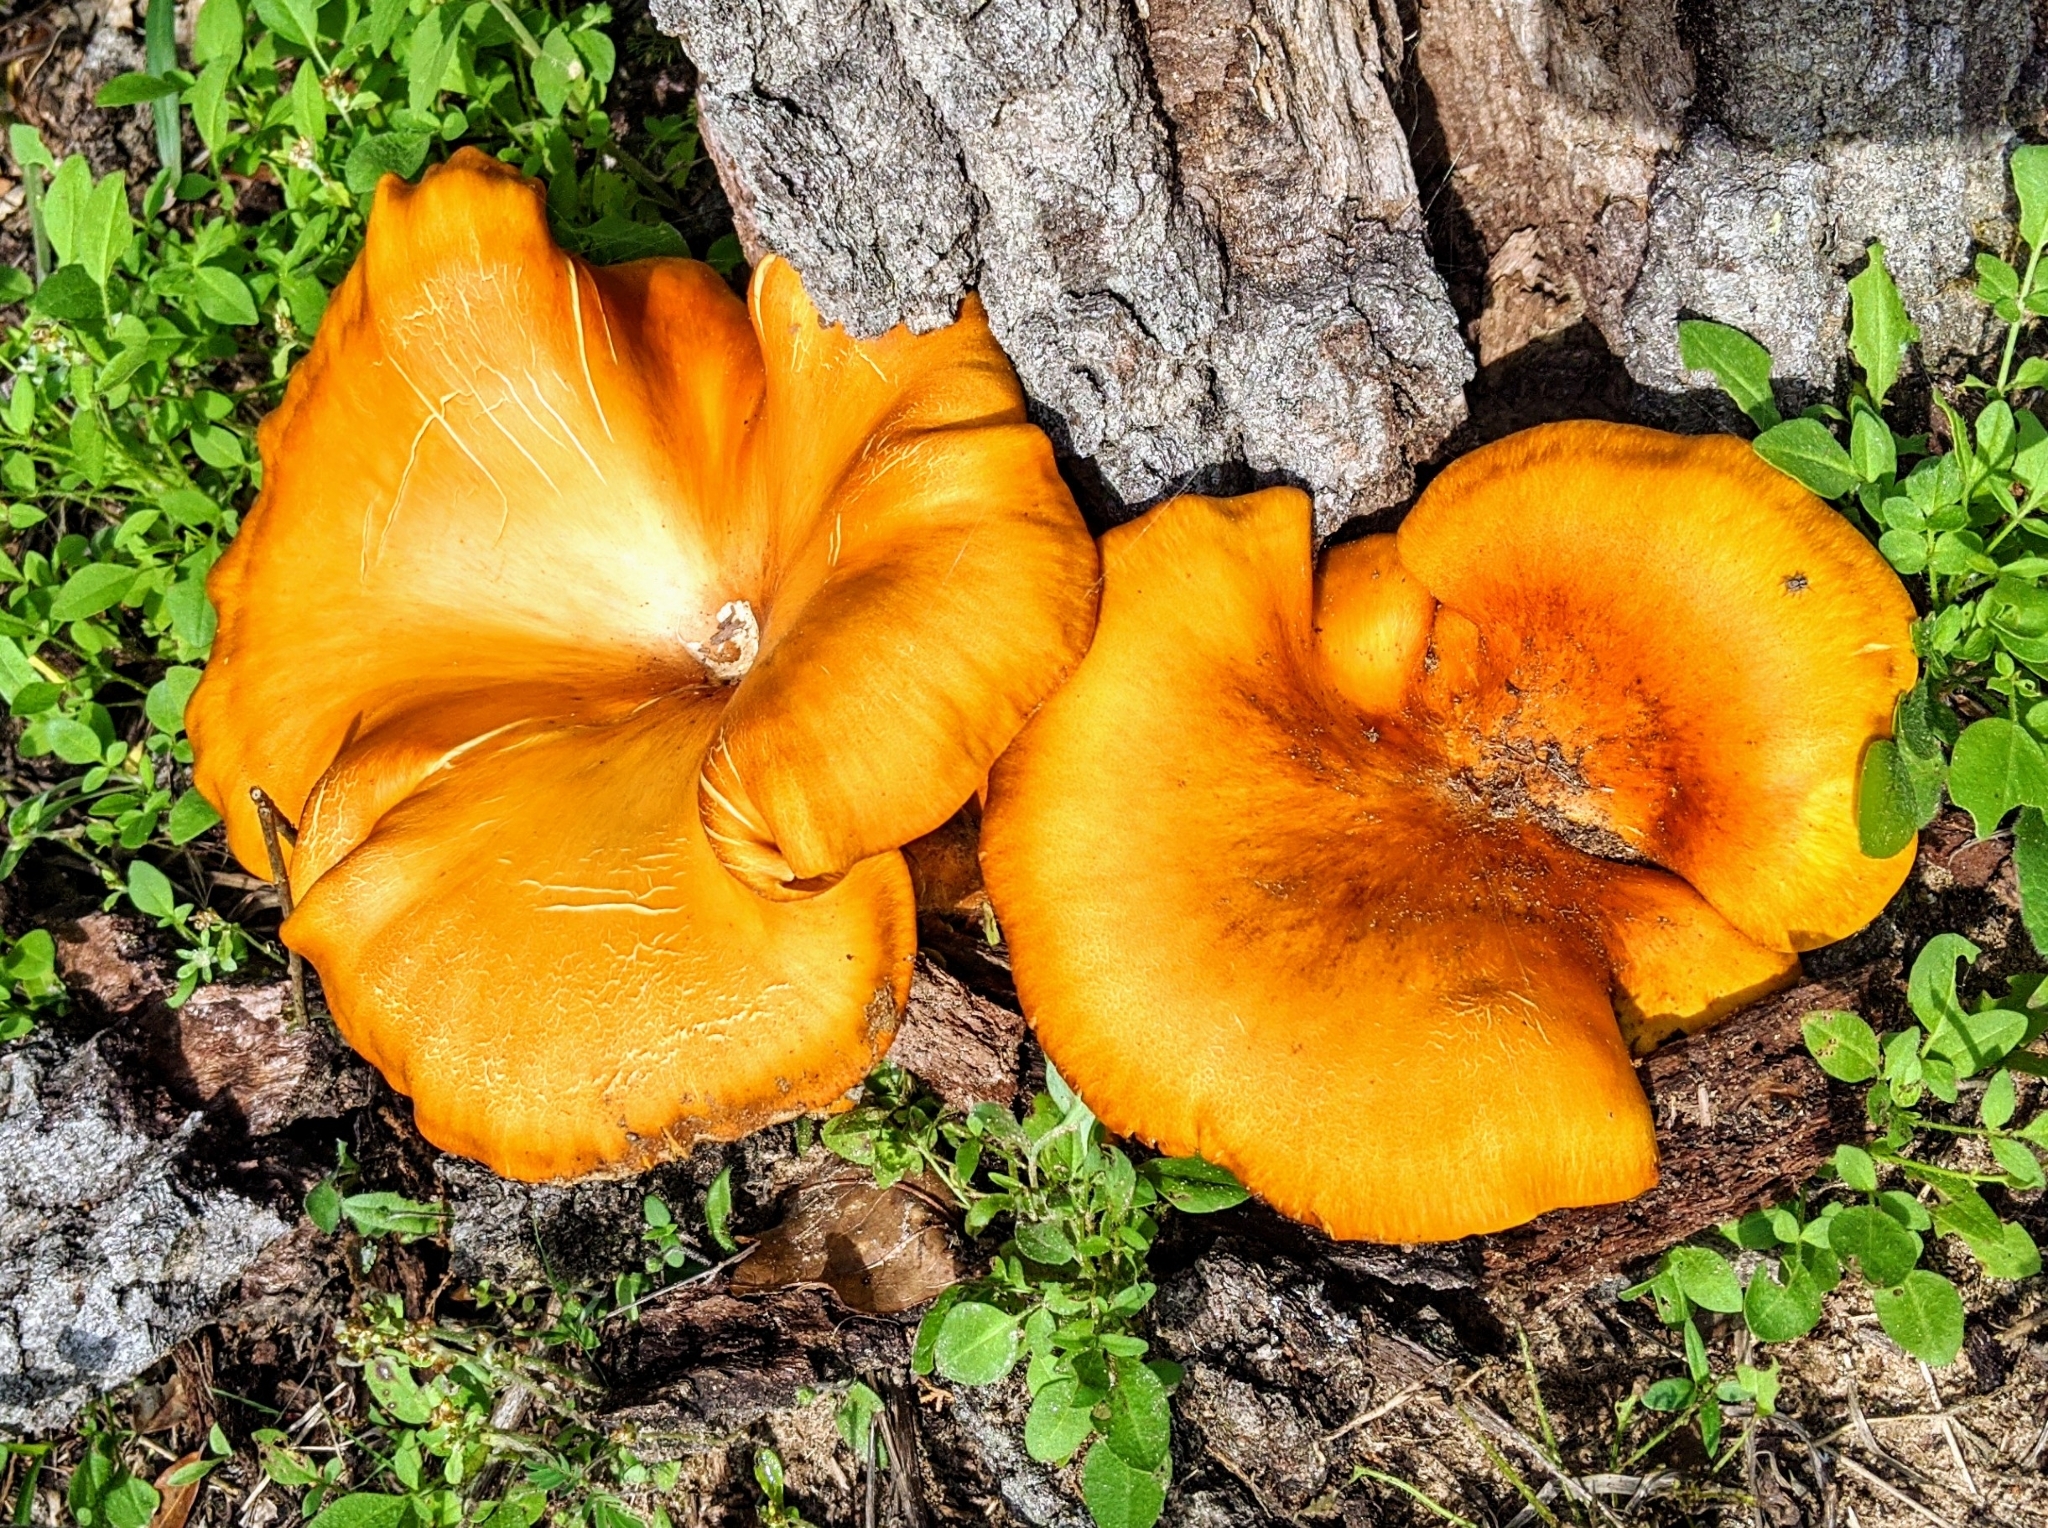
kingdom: Fungi
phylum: Basidiomycota
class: Agaricomycetes
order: Agaricales
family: Omphalotaceae
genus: Omphalotus
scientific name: Omphalotus subilludens
